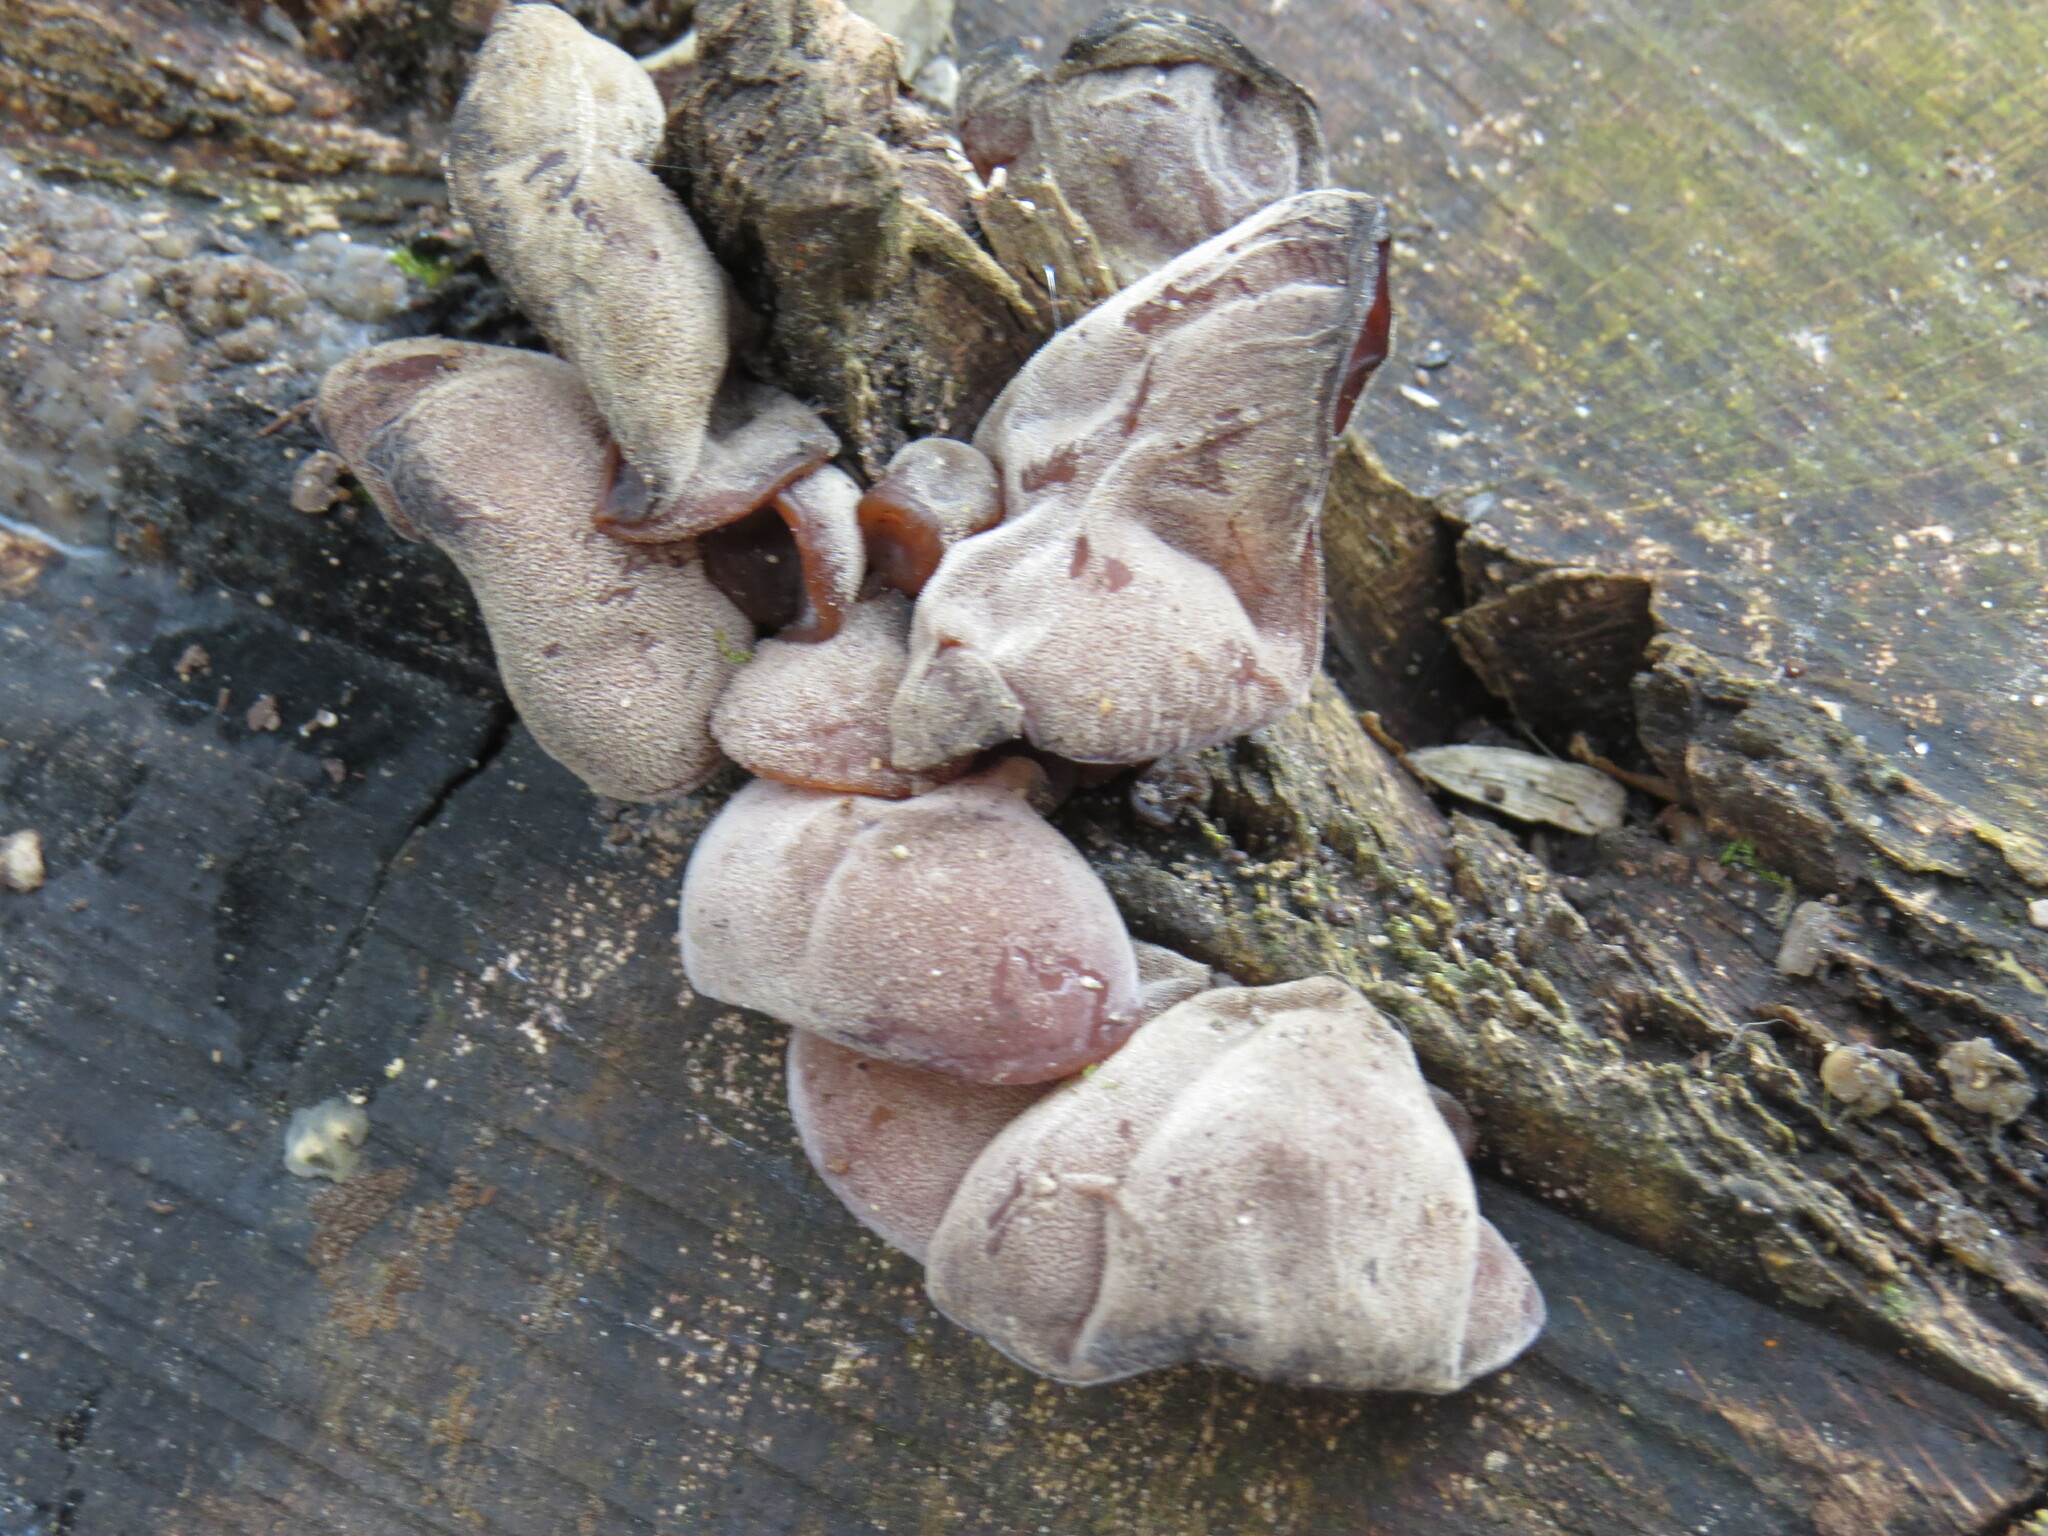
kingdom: Fungi
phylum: Basidiomycota
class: Agaricomycetes
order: Auriculariales
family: Auriculariaceae
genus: Auricularia
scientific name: Auricularia auricula-judae
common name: Jelly ear
